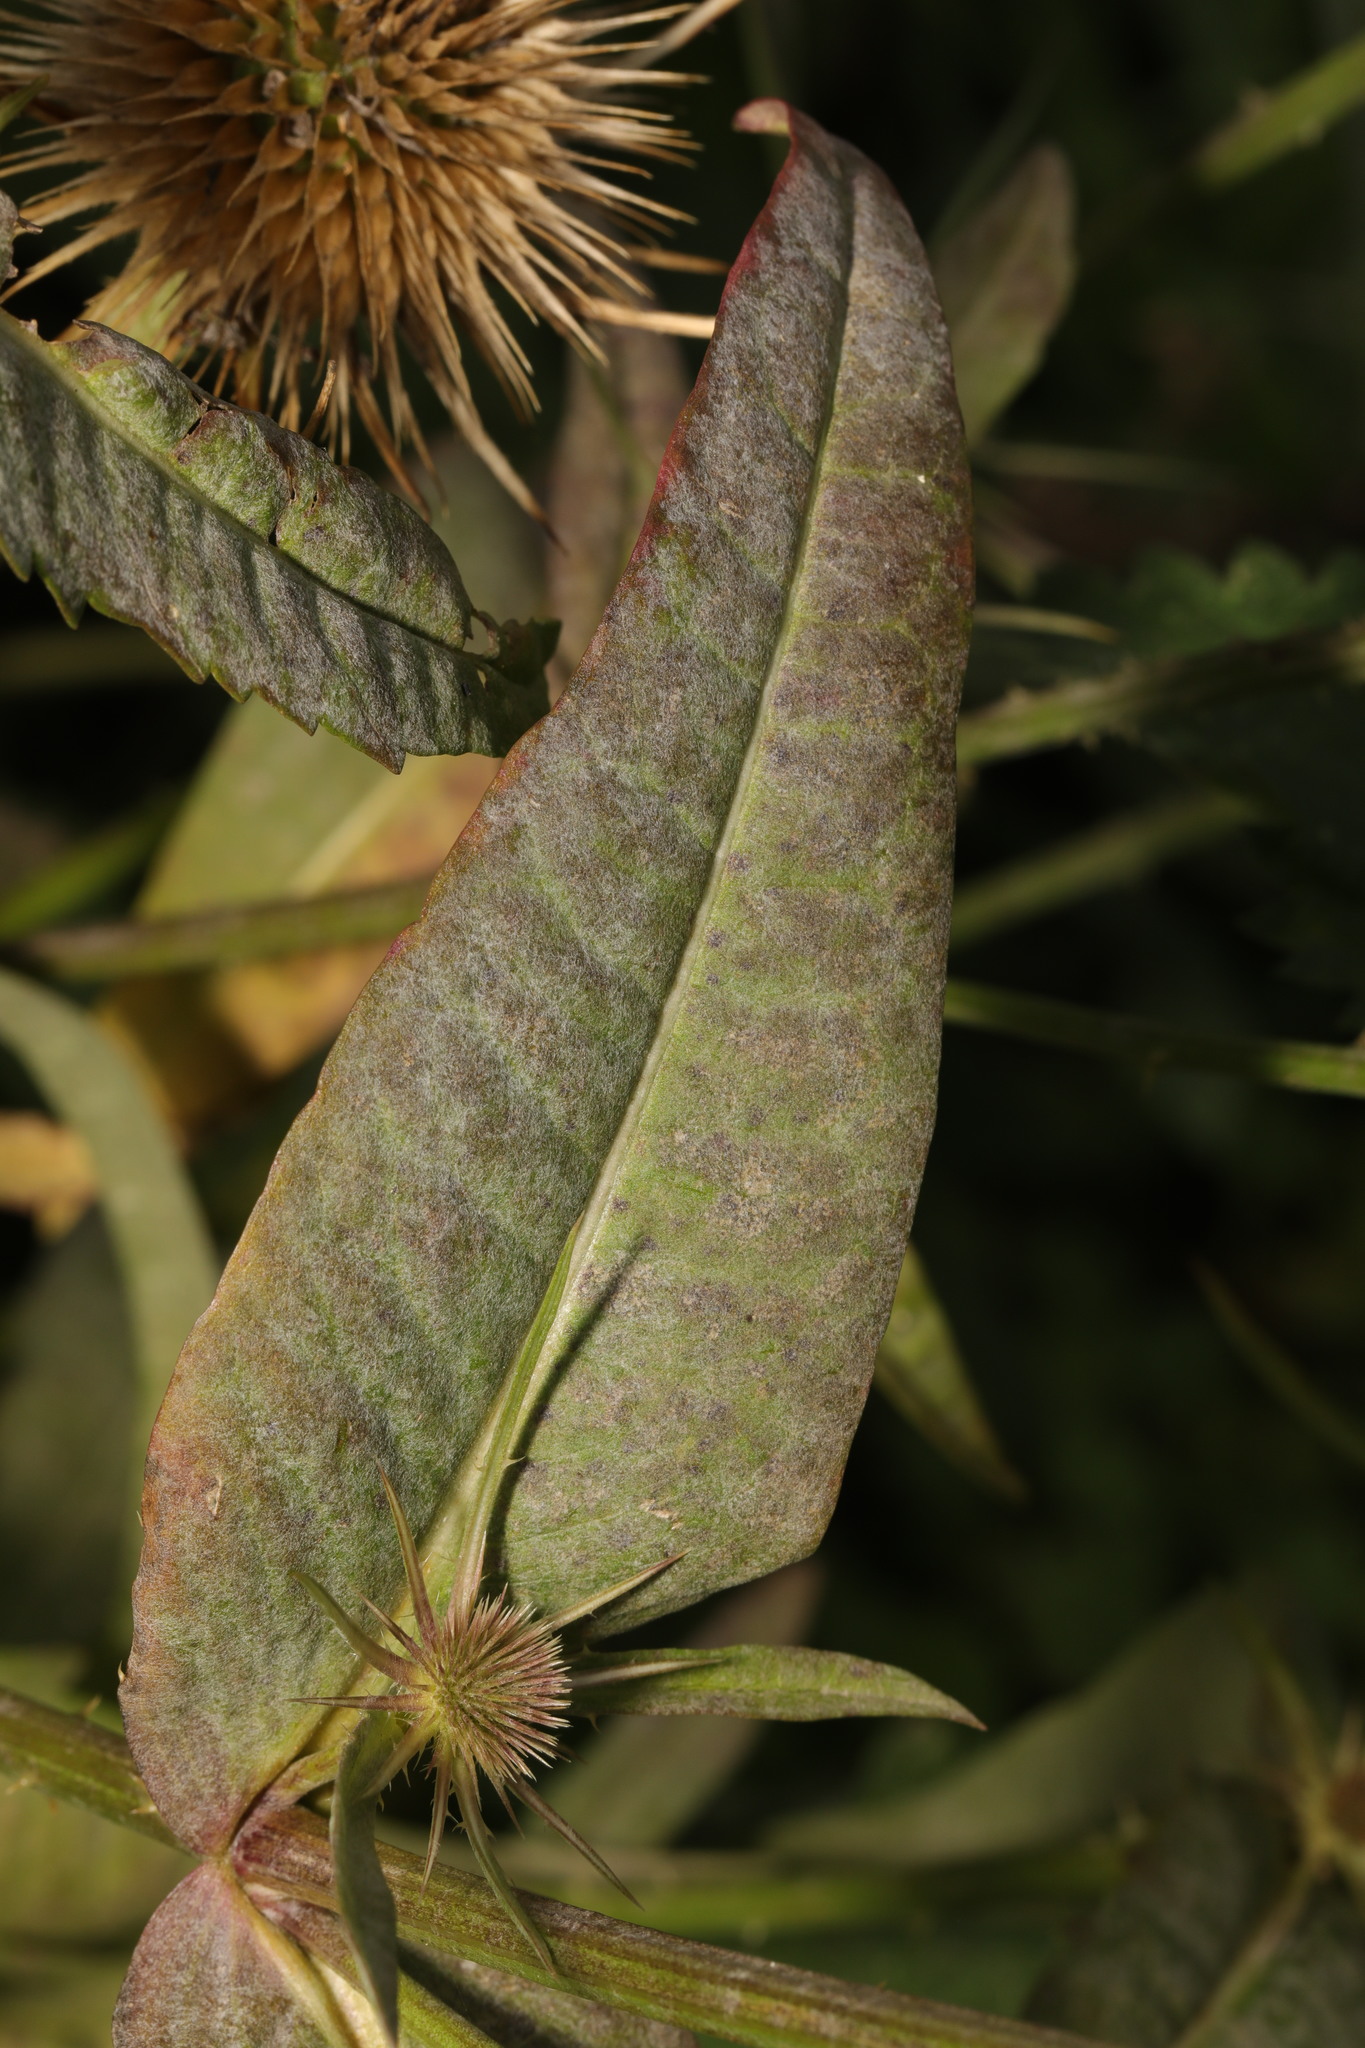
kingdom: Plantae
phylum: Tracheophyta
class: Magnoliopsida
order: Dipsacales
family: Caprifoliaceae
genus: Dipsacus
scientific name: Dipsacus fullonum
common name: Teasel
